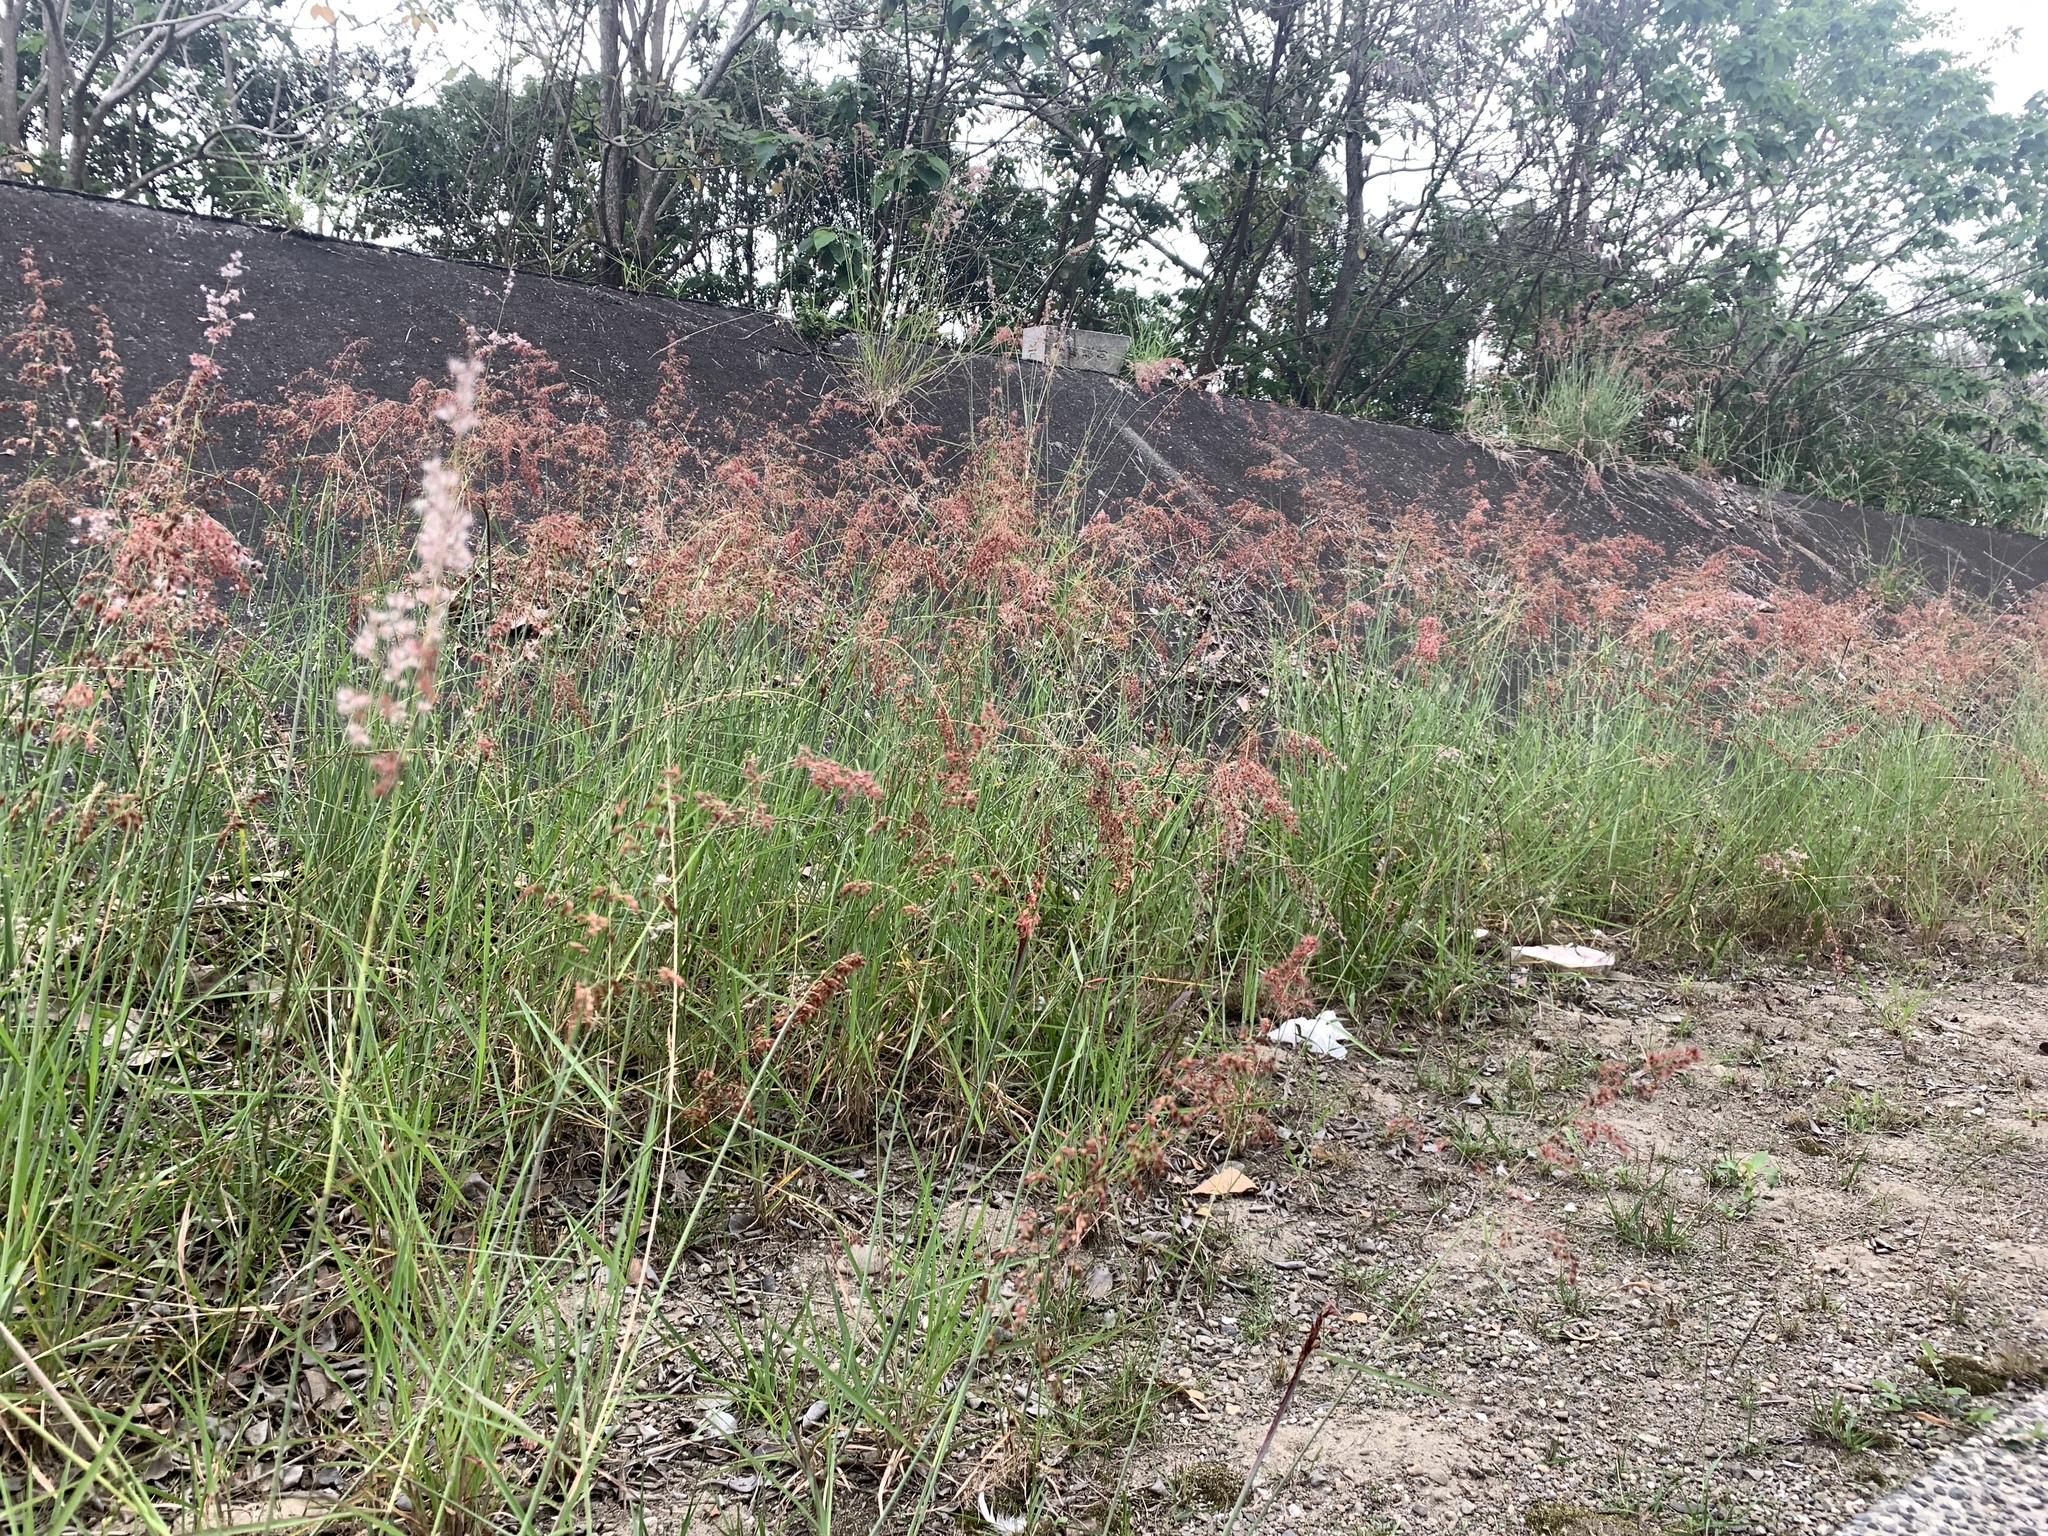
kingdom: Plantae
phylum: Tracheophyta
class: Liliopsida
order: Poales
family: Poaceae
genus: Melinis
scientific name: Melinis repens
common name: Rose natal grass
